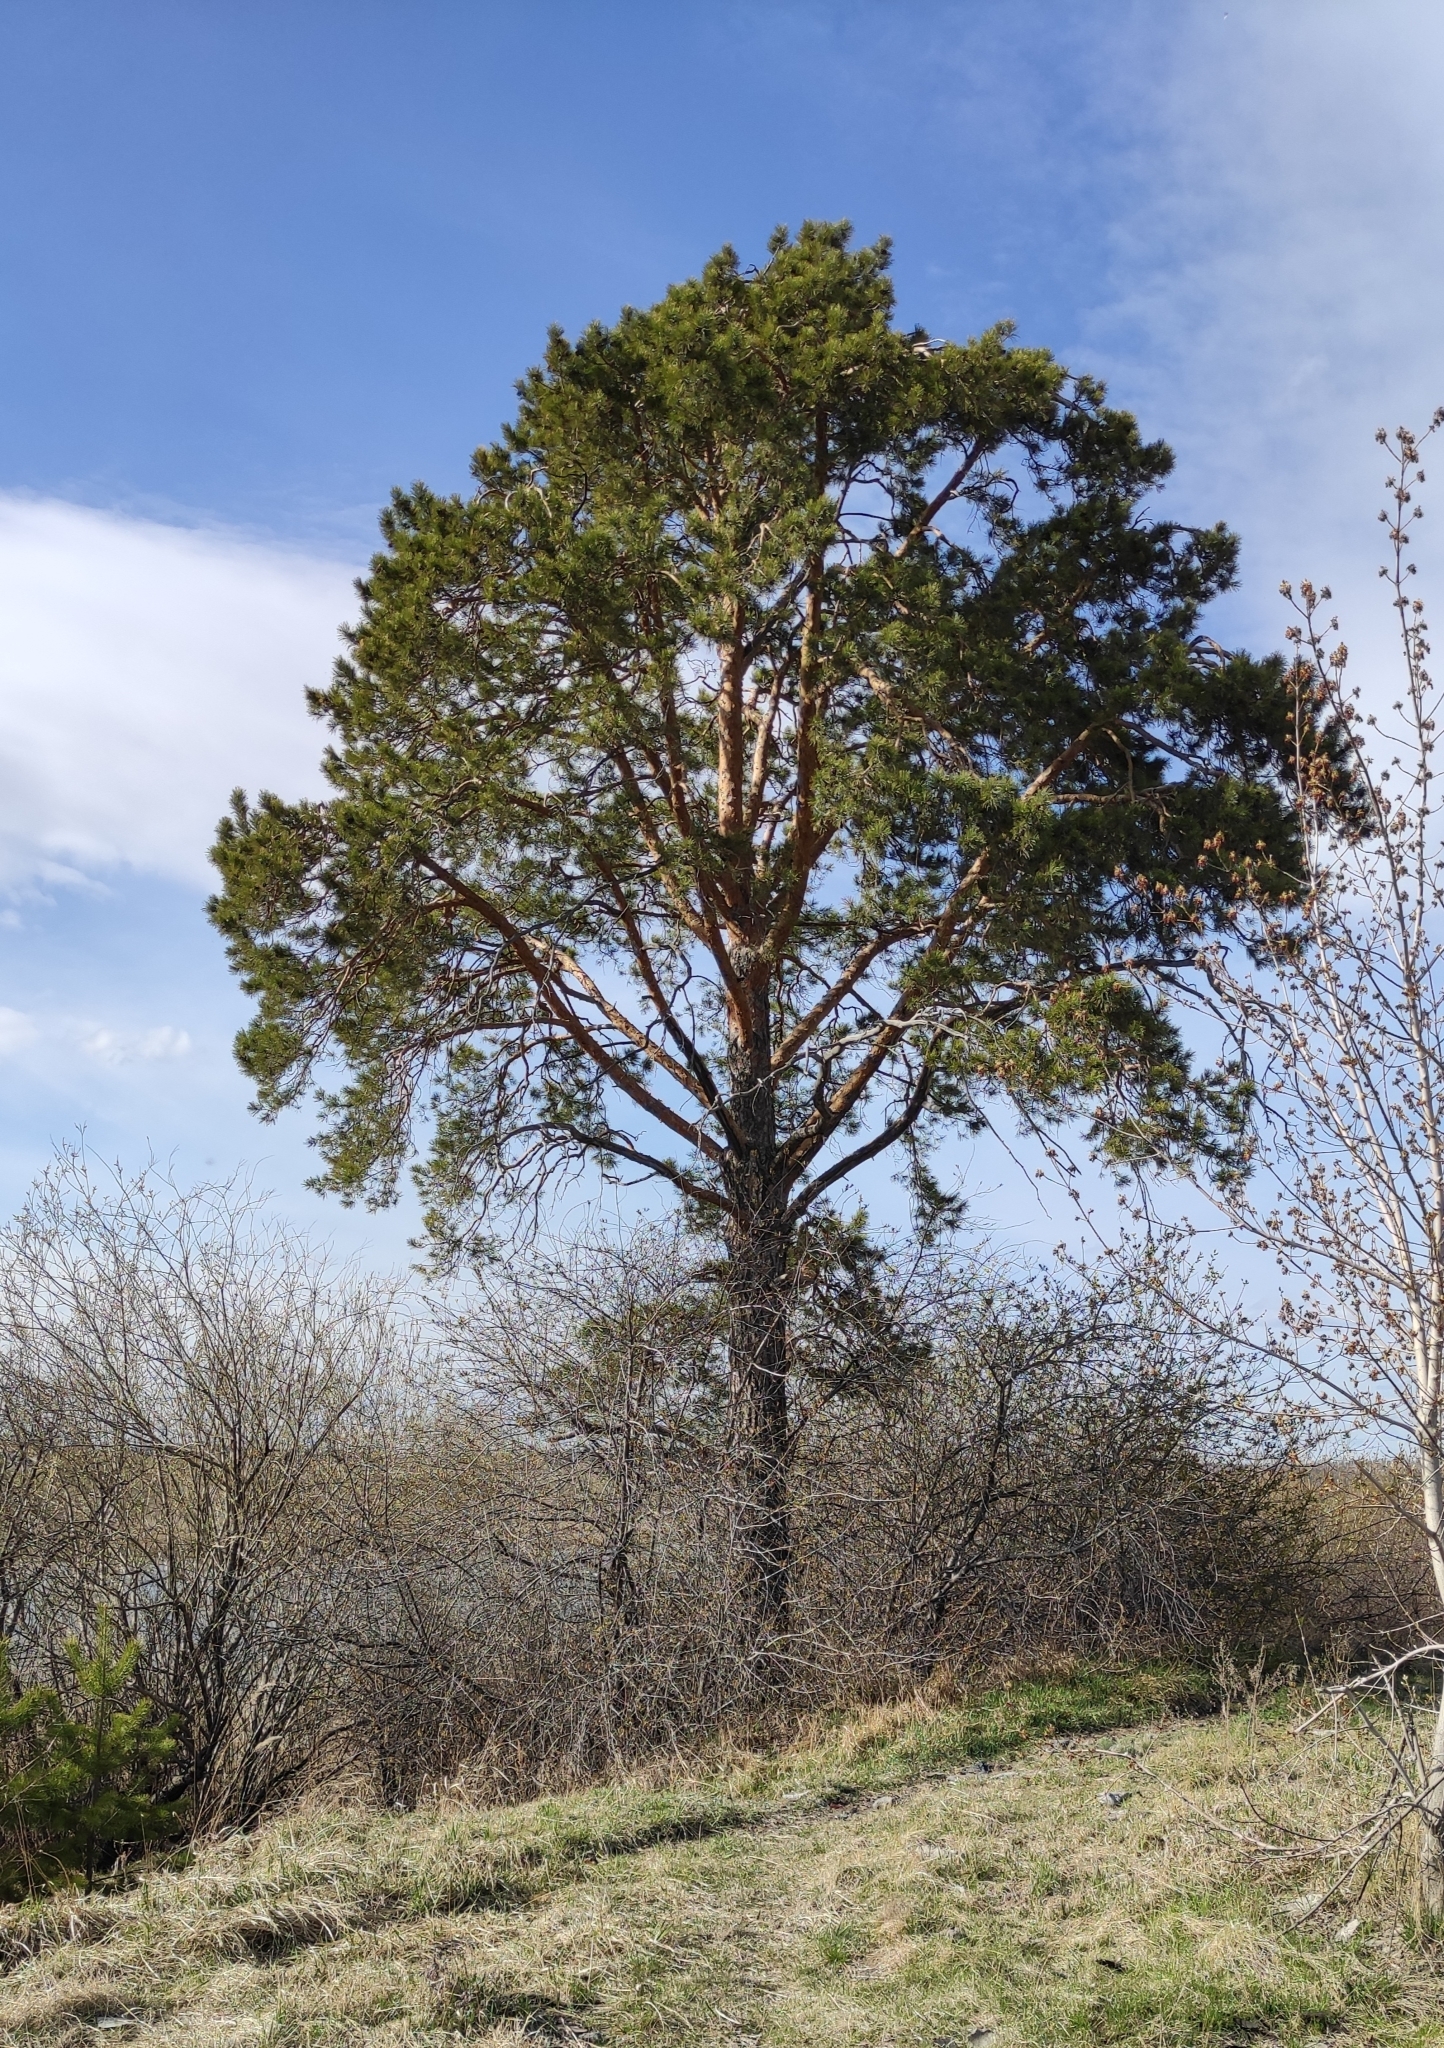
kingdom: Plantae
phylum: Tracheophyta
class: Pinopsida
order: Pinales
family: Pinaceae
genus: Pinus
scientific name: Pinus sylvestris
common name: Scots pine
